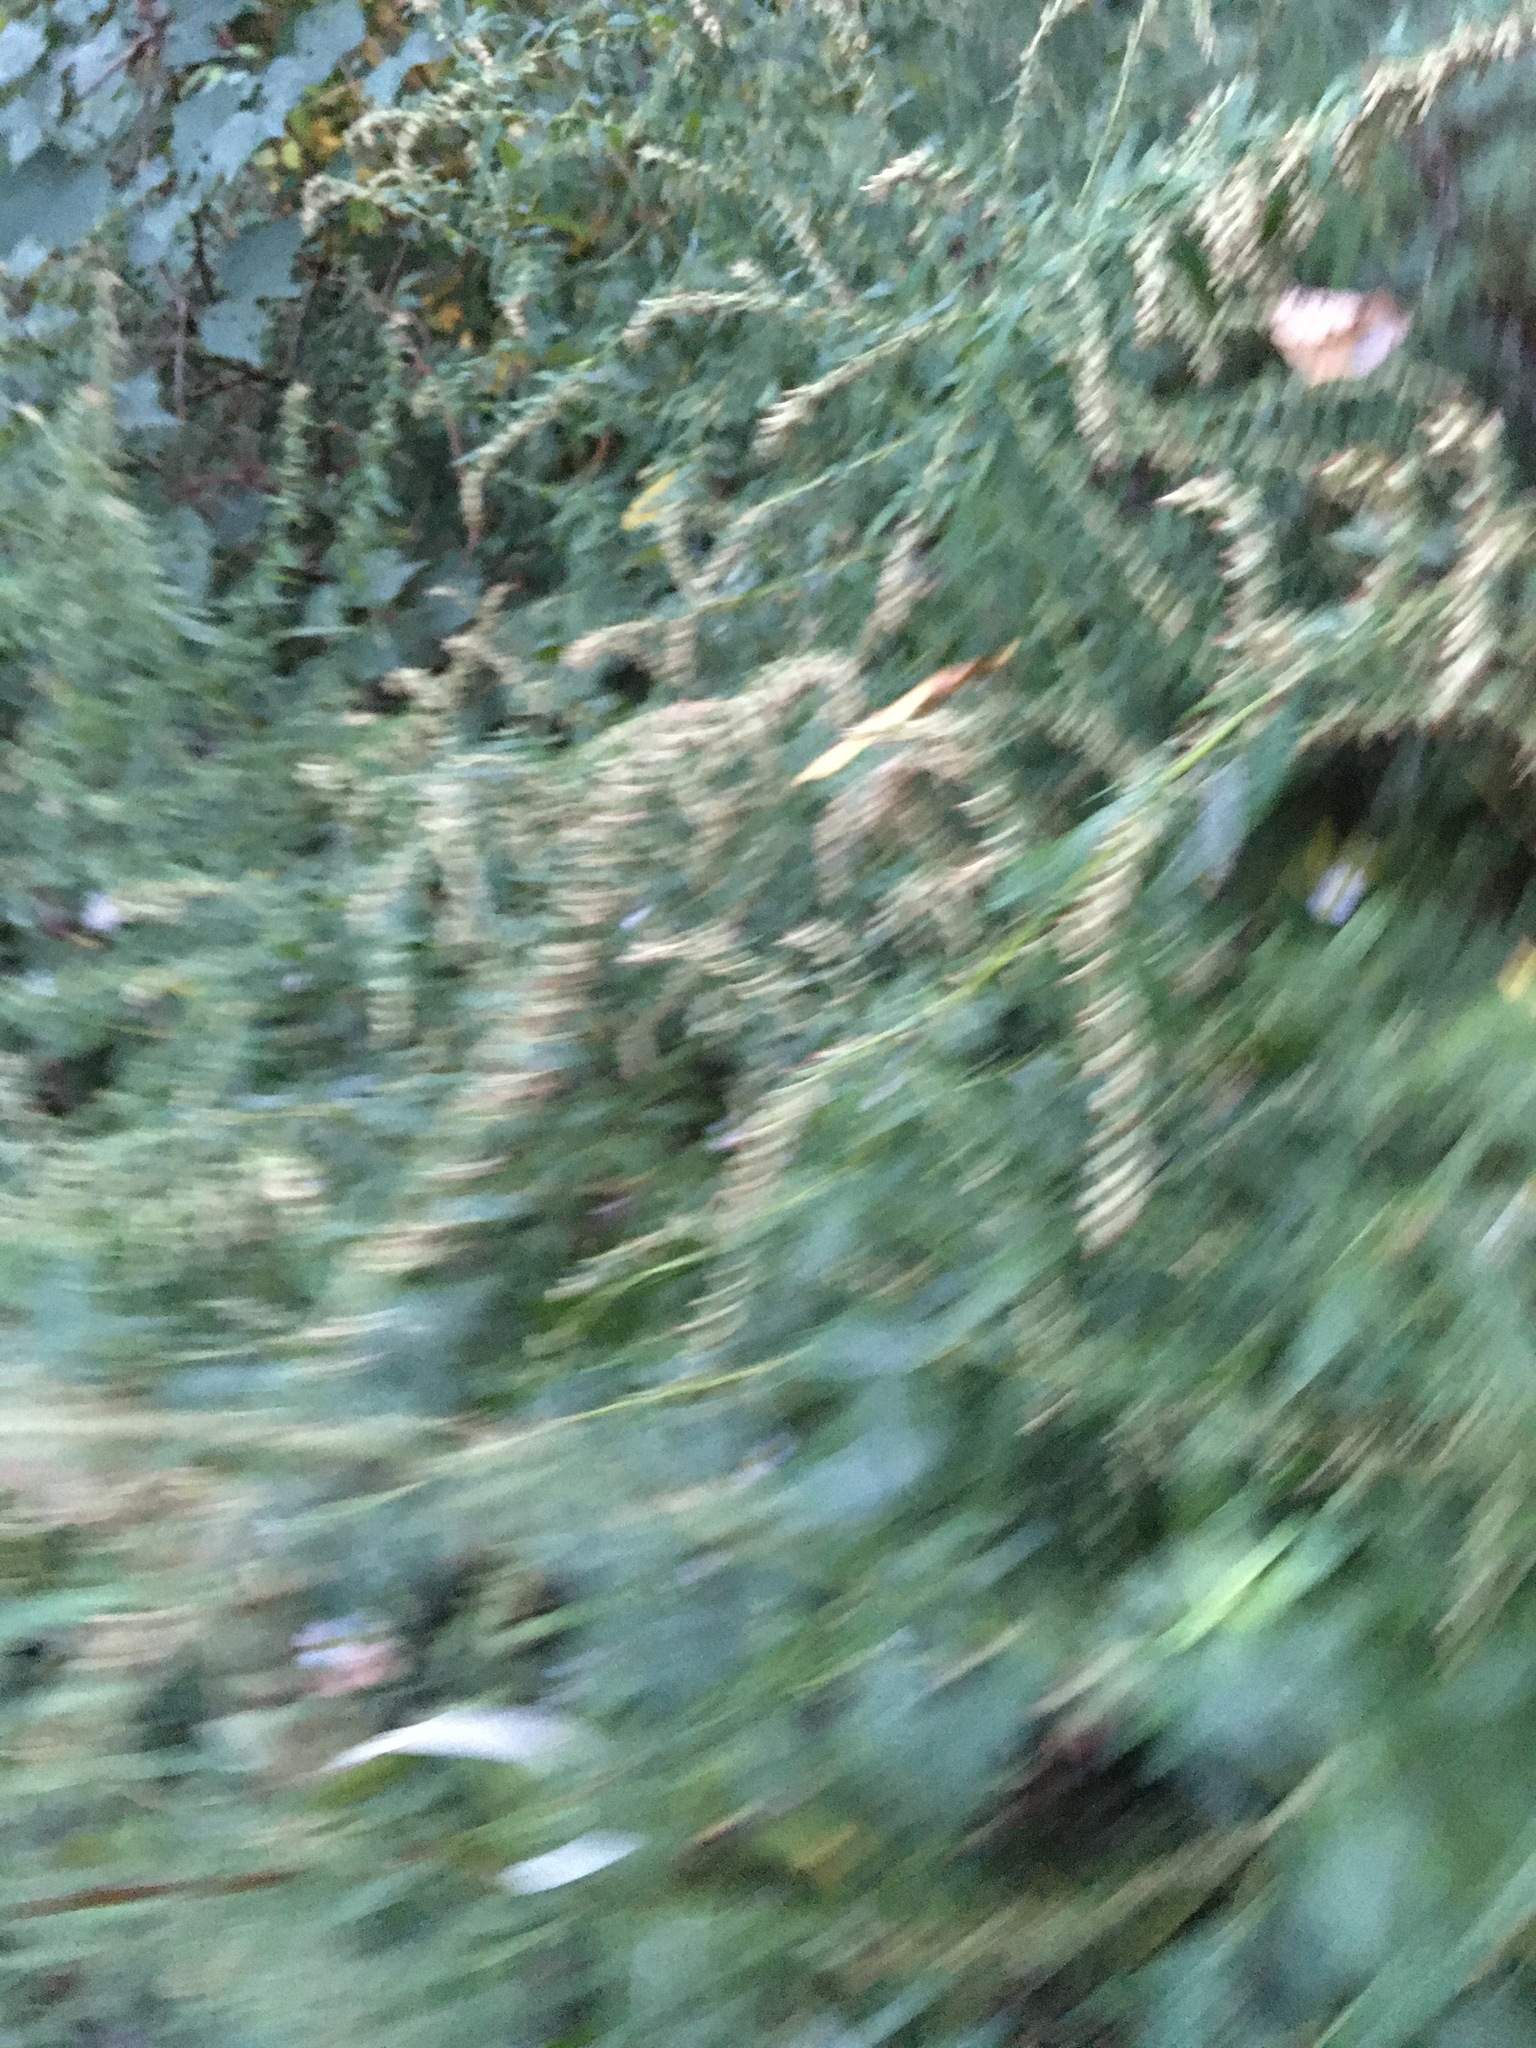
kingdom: Plantae
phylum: Tracheophyta
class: Magnoliopsida
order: Asterales
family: Asteraceae
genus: Artemisia
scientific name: Artemisia vulgaris
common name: Mugwort
